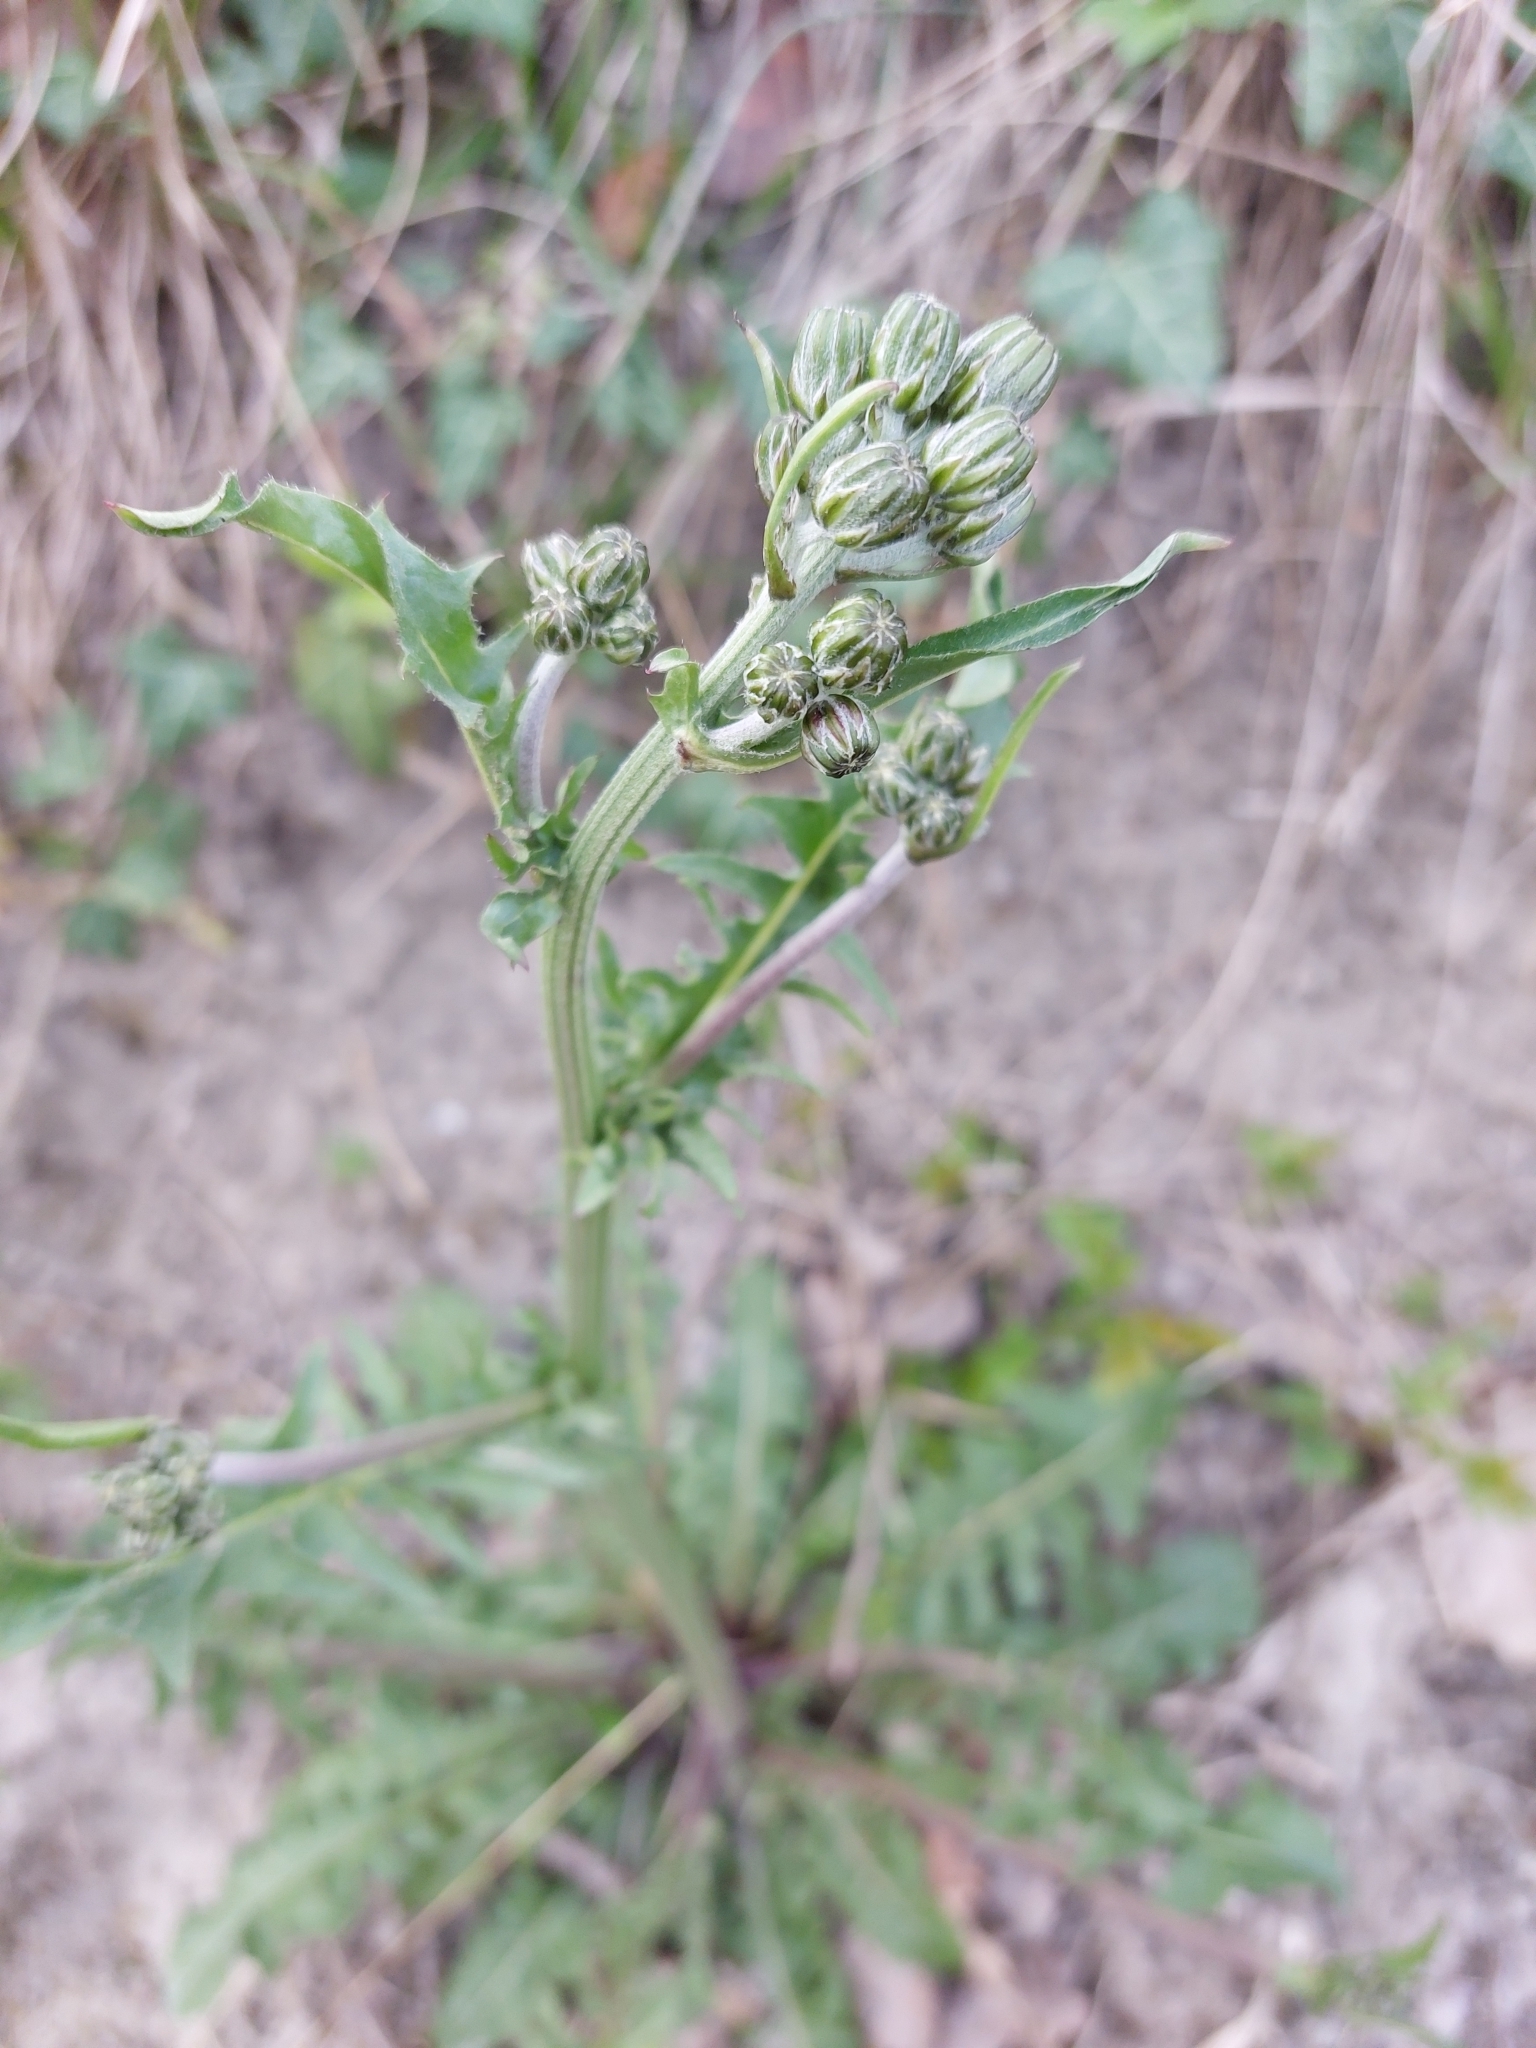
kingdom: Plantae
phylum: Tracheophyta
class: Magnoliopsida
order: Asterales
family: Asteraceae
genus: Crepis
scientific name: Crepis vesicaria
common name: Beaked hawksbeard
